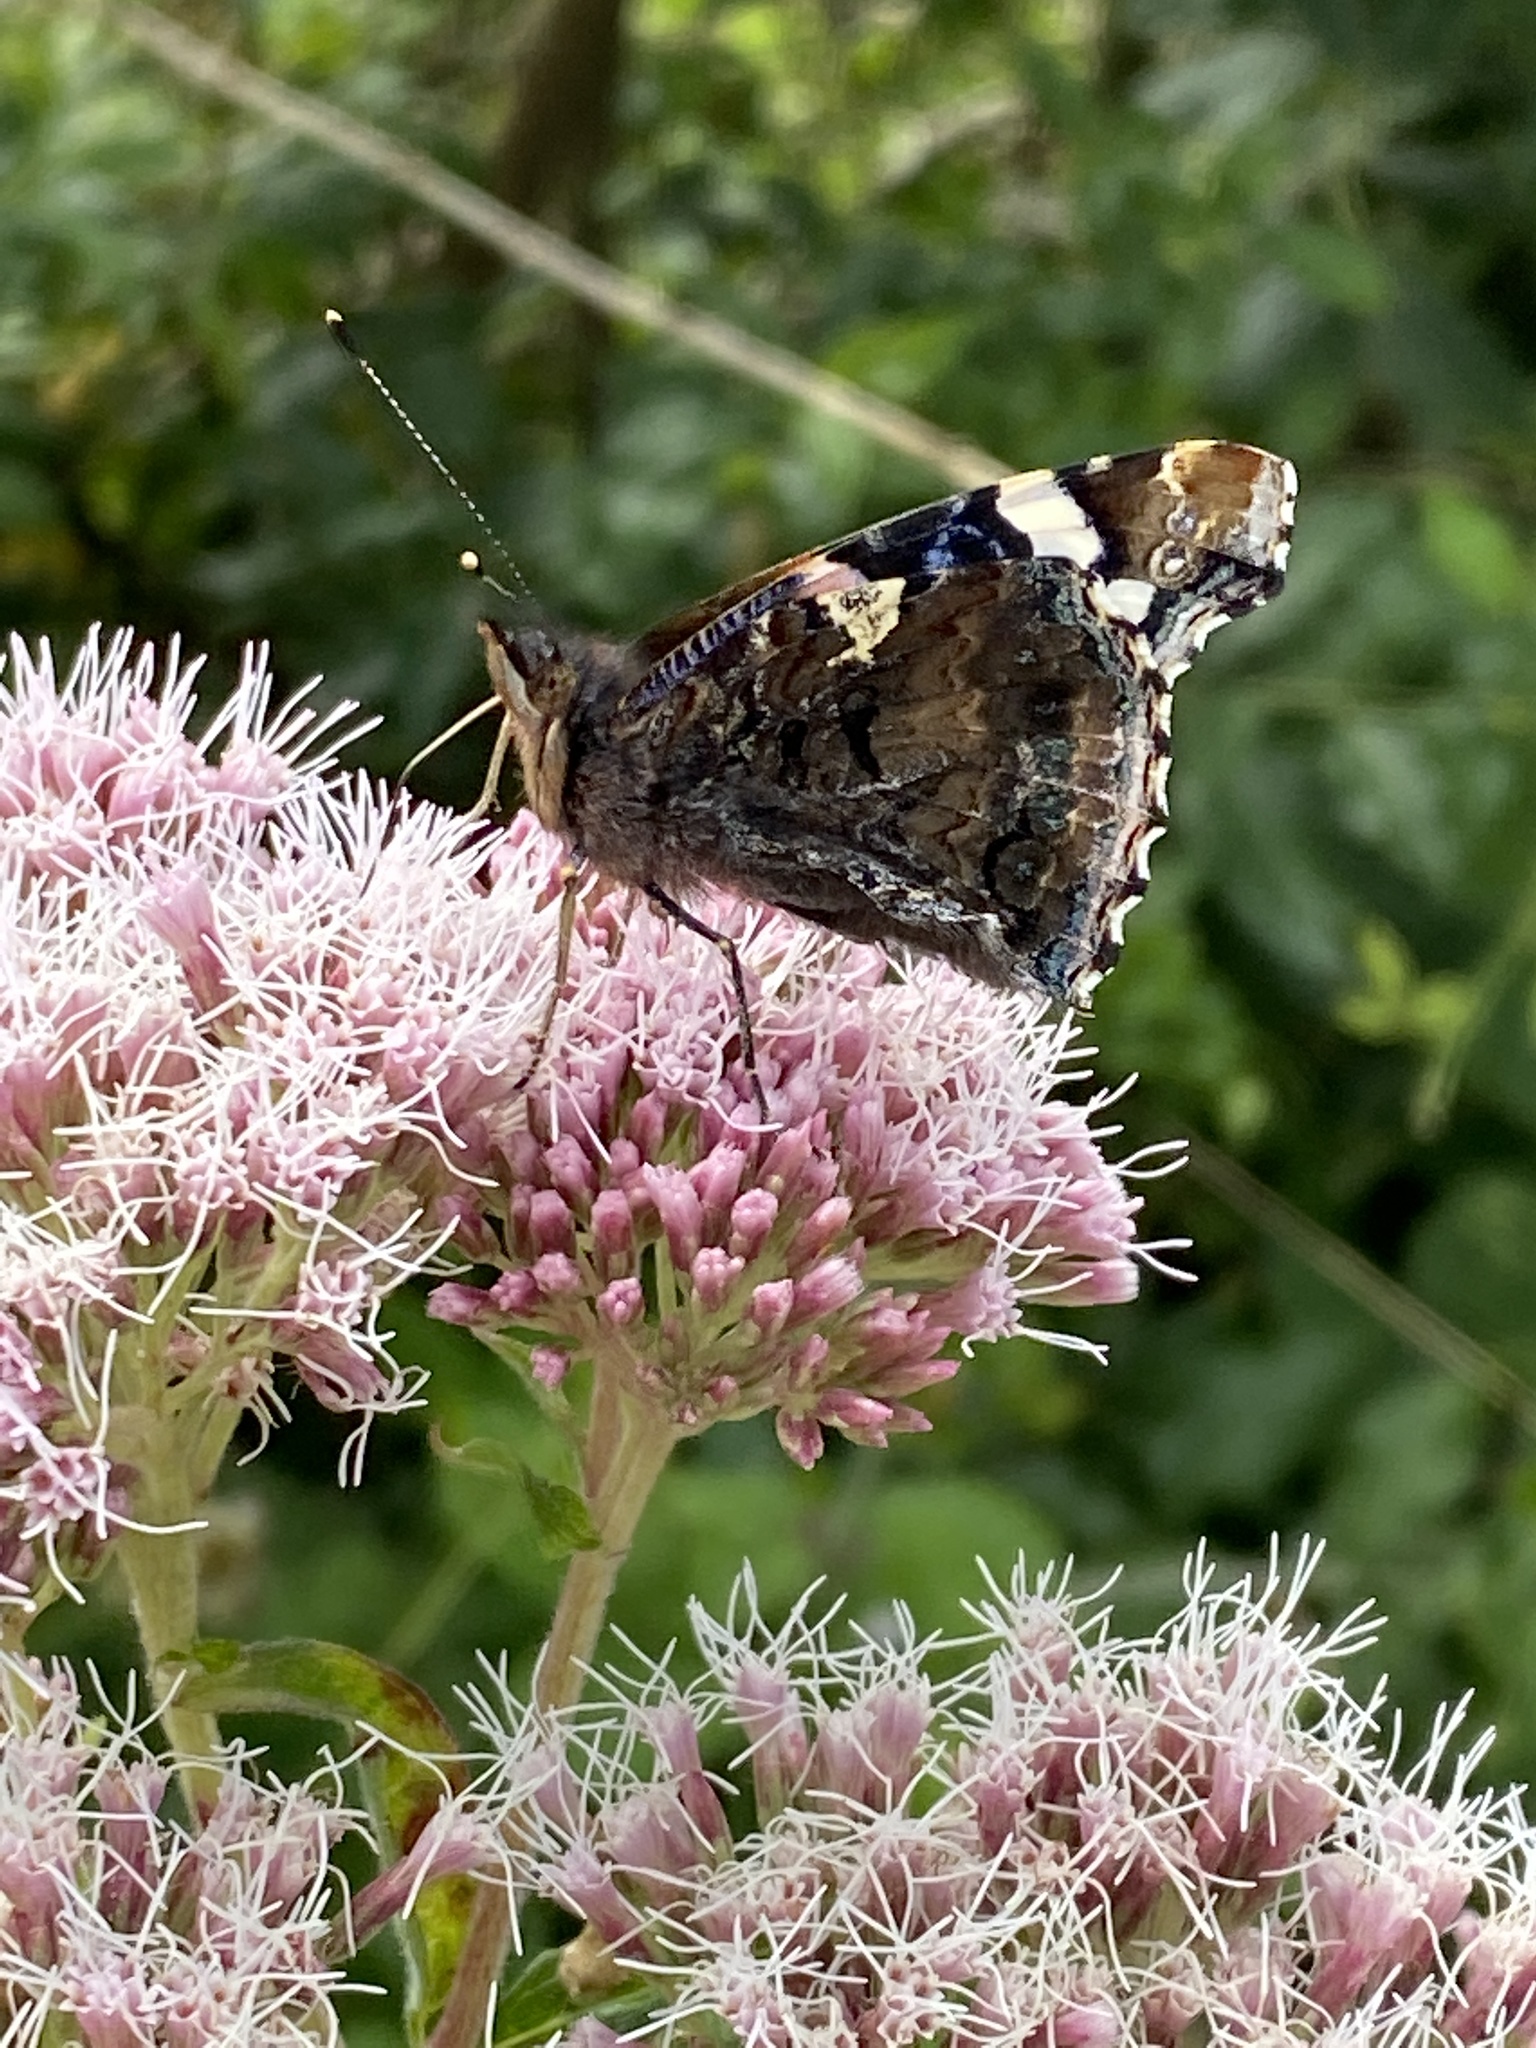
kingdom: Animalia
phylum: Arthropoda
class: Insecta
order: Lepidoptera
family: Nymphalidae
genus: Vanessa
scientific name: Vanessa atalanta
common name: Red admiral
